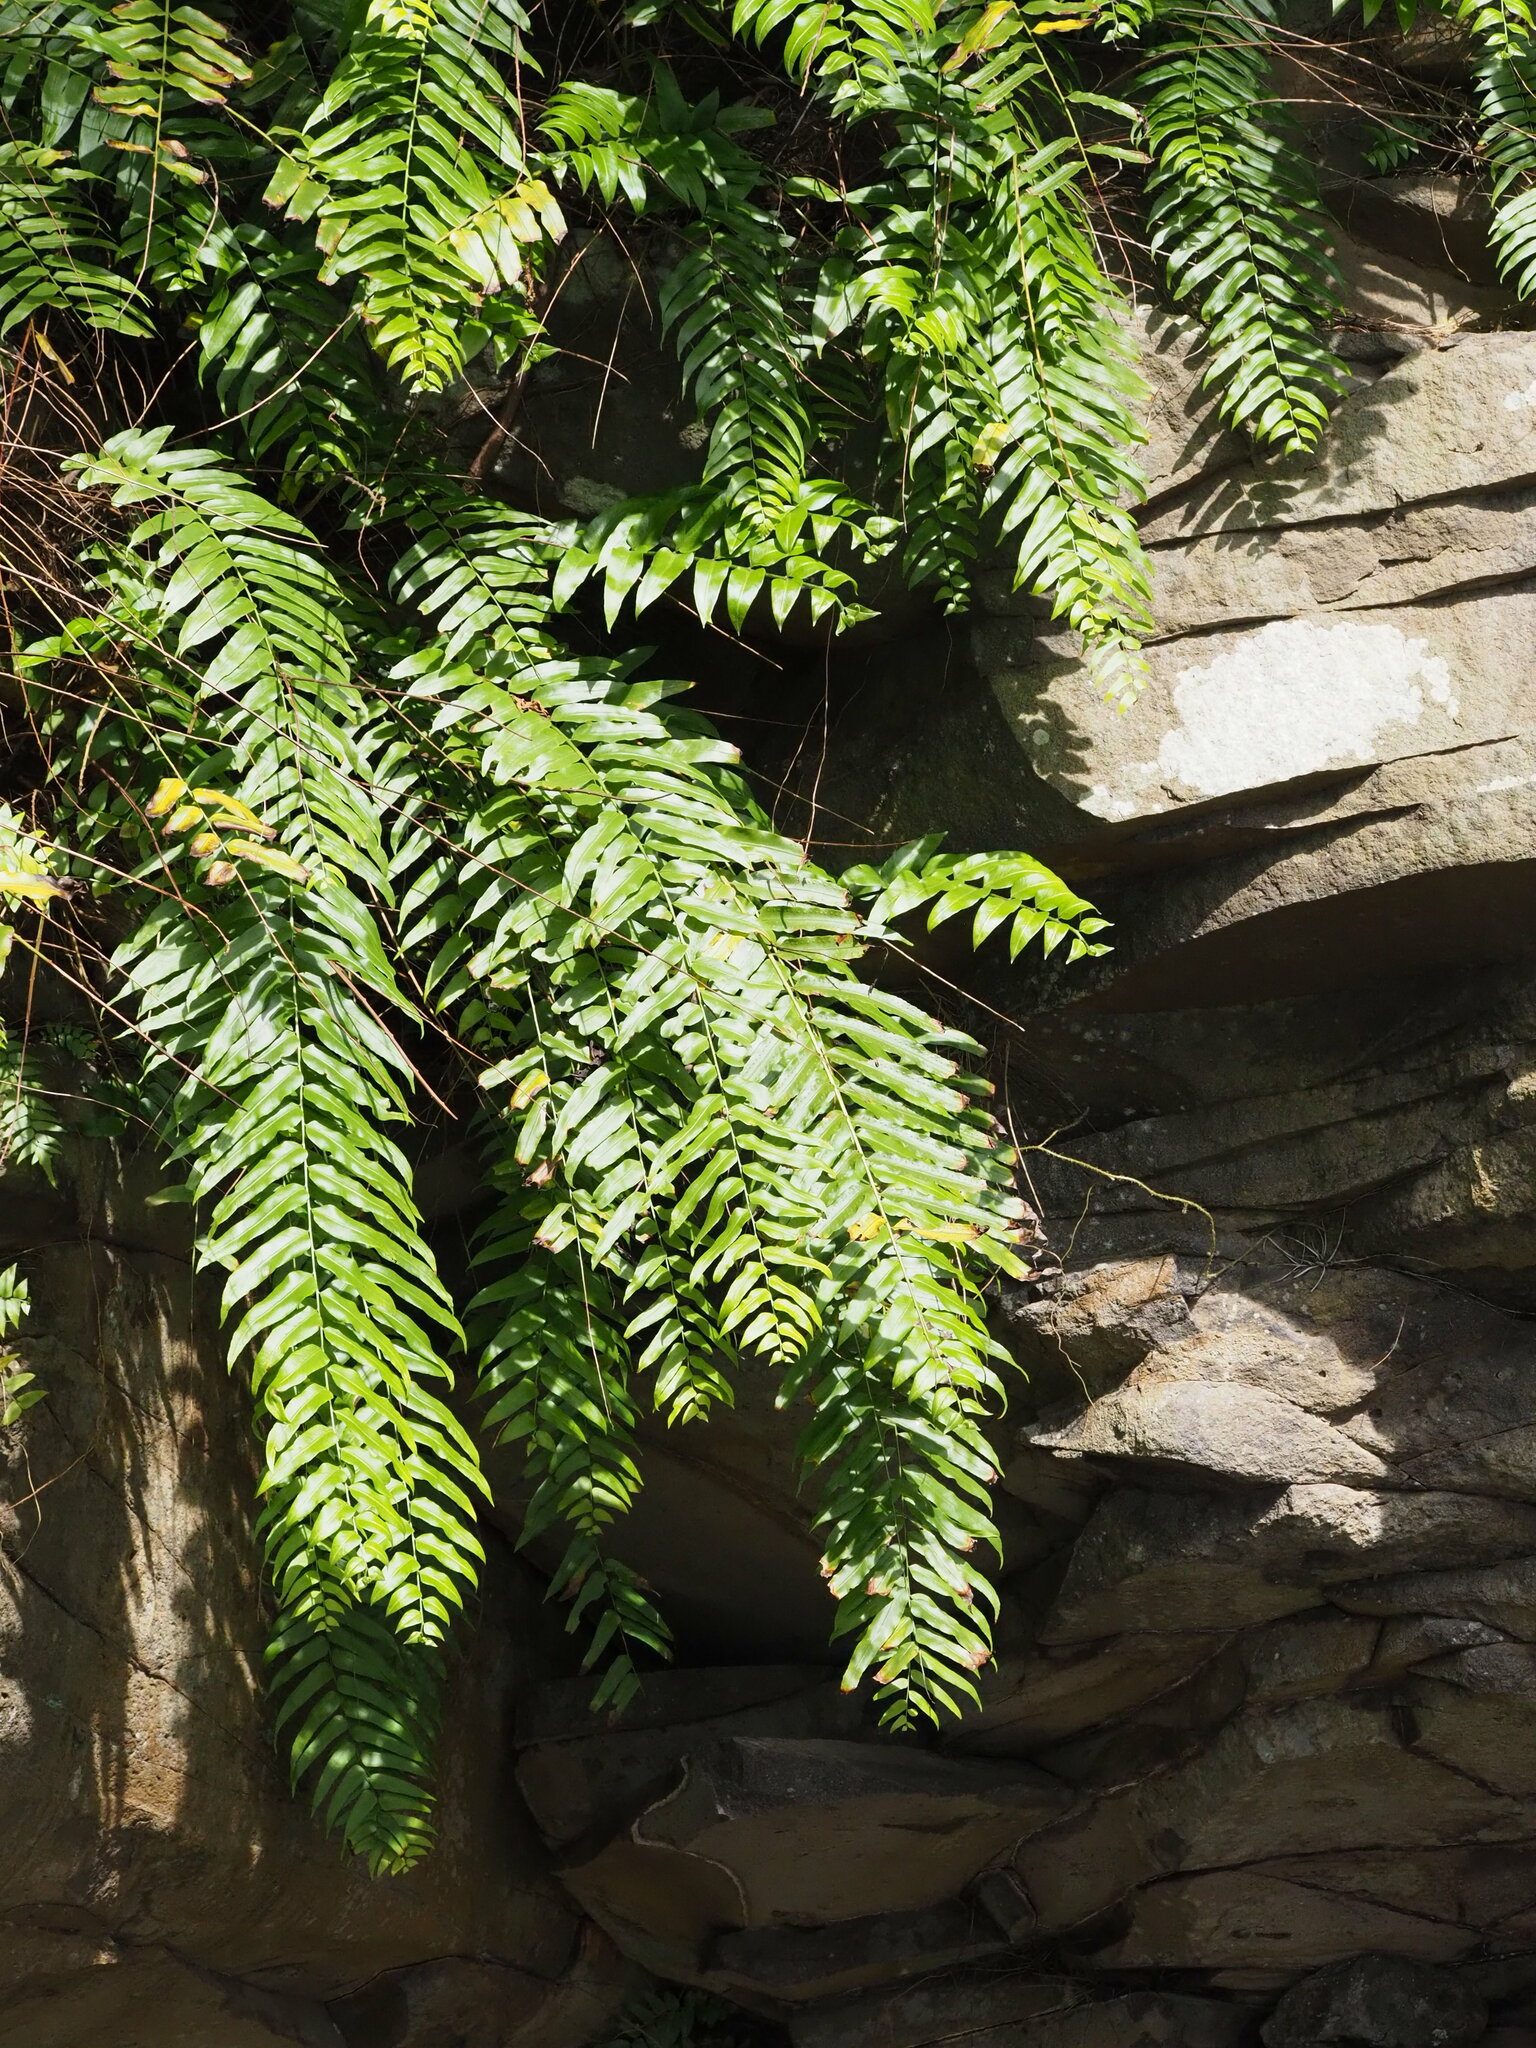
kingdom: Plantae
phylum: Tracheophyta
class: Polypodiopsida
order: Polypodiales
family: Nephrolepidaceae
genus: Nephrolepis
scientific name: Nephrolepis biserrata
